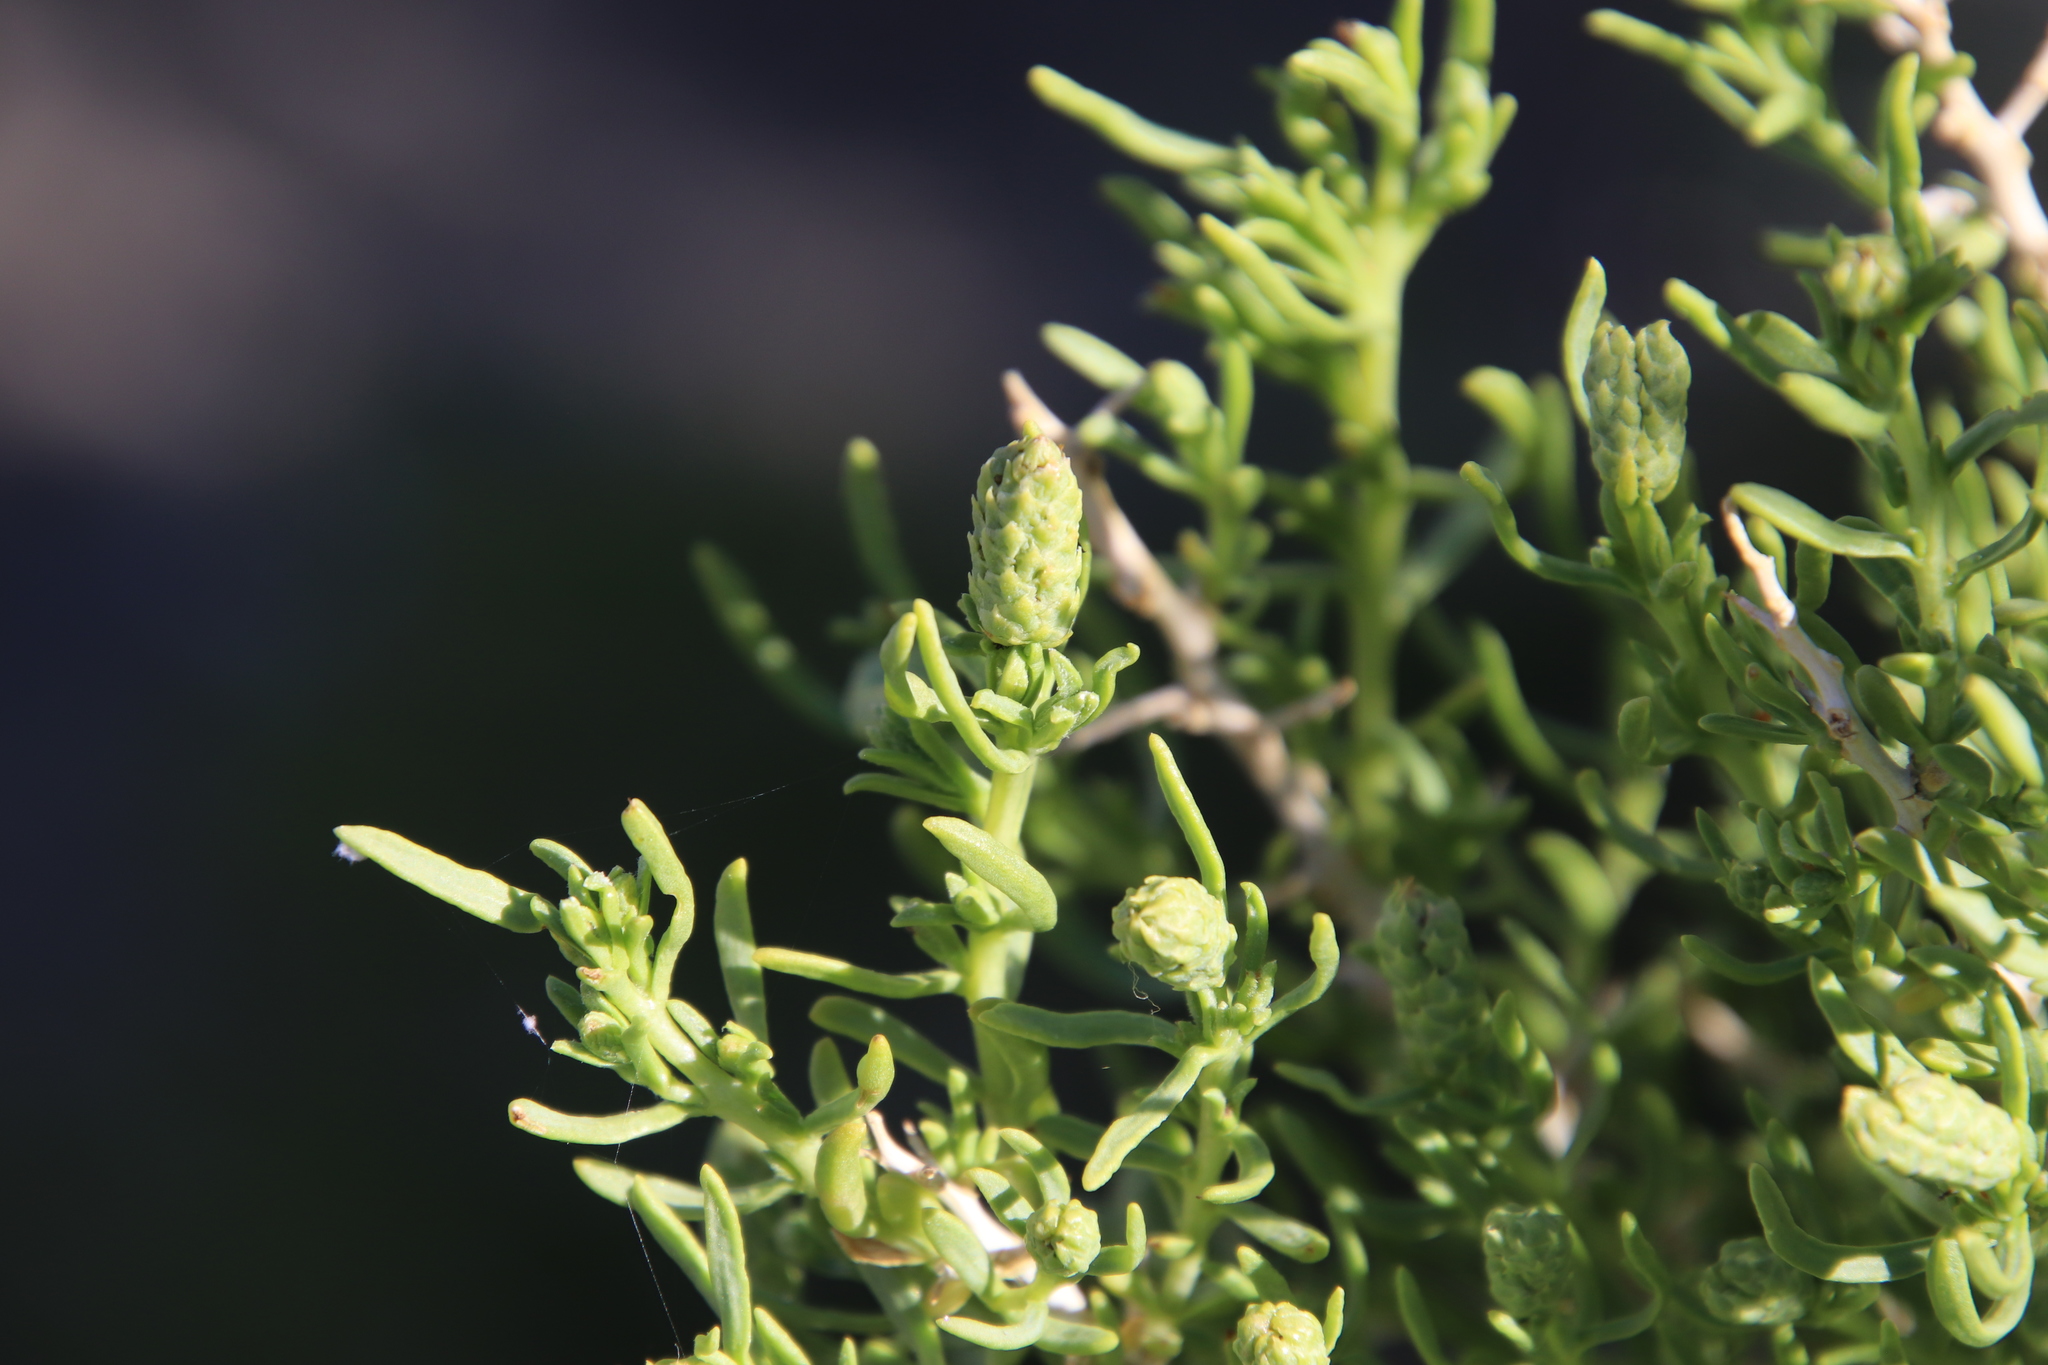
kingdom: Plantae
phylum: Tracheophyta
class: Magnoliopsida
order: Caryophyllales
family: Sarcobataceae
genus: Sarcobatus
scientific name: Sarcobatus vermiculatus
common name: Greasewood
